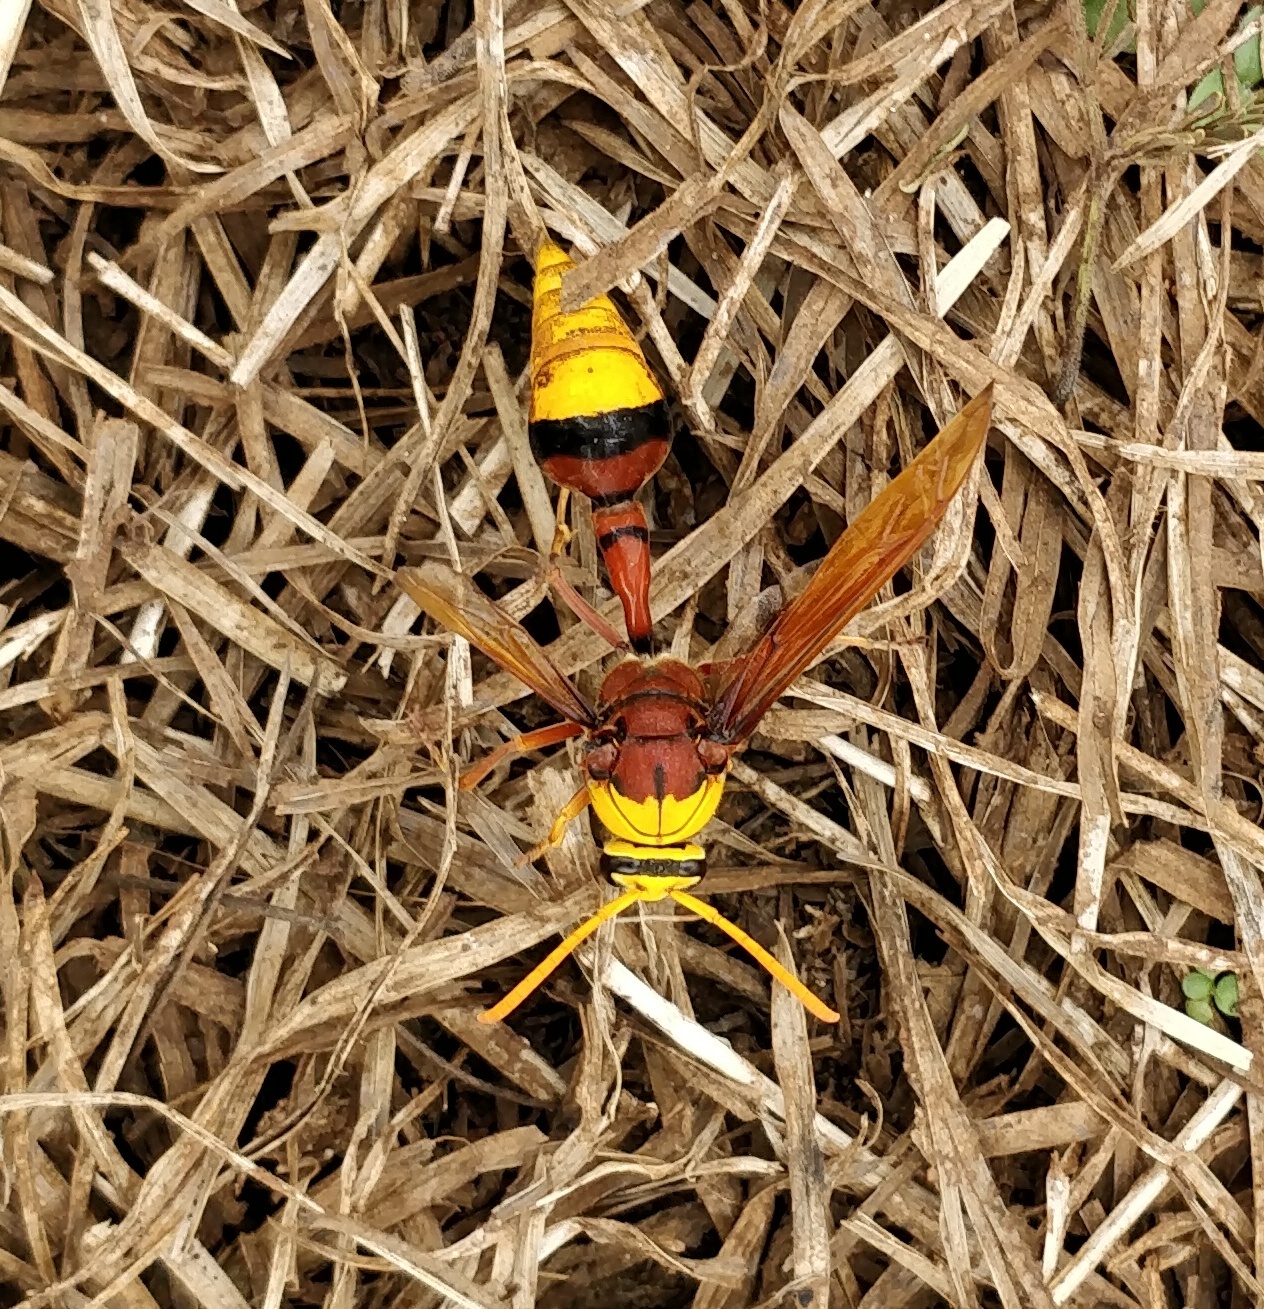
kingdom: Animalia
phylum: Arthropoda
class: Insecta
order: Hymenoptera
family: Eumenidae
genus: Delta
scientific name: Delta pyriforme
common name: Wasp
